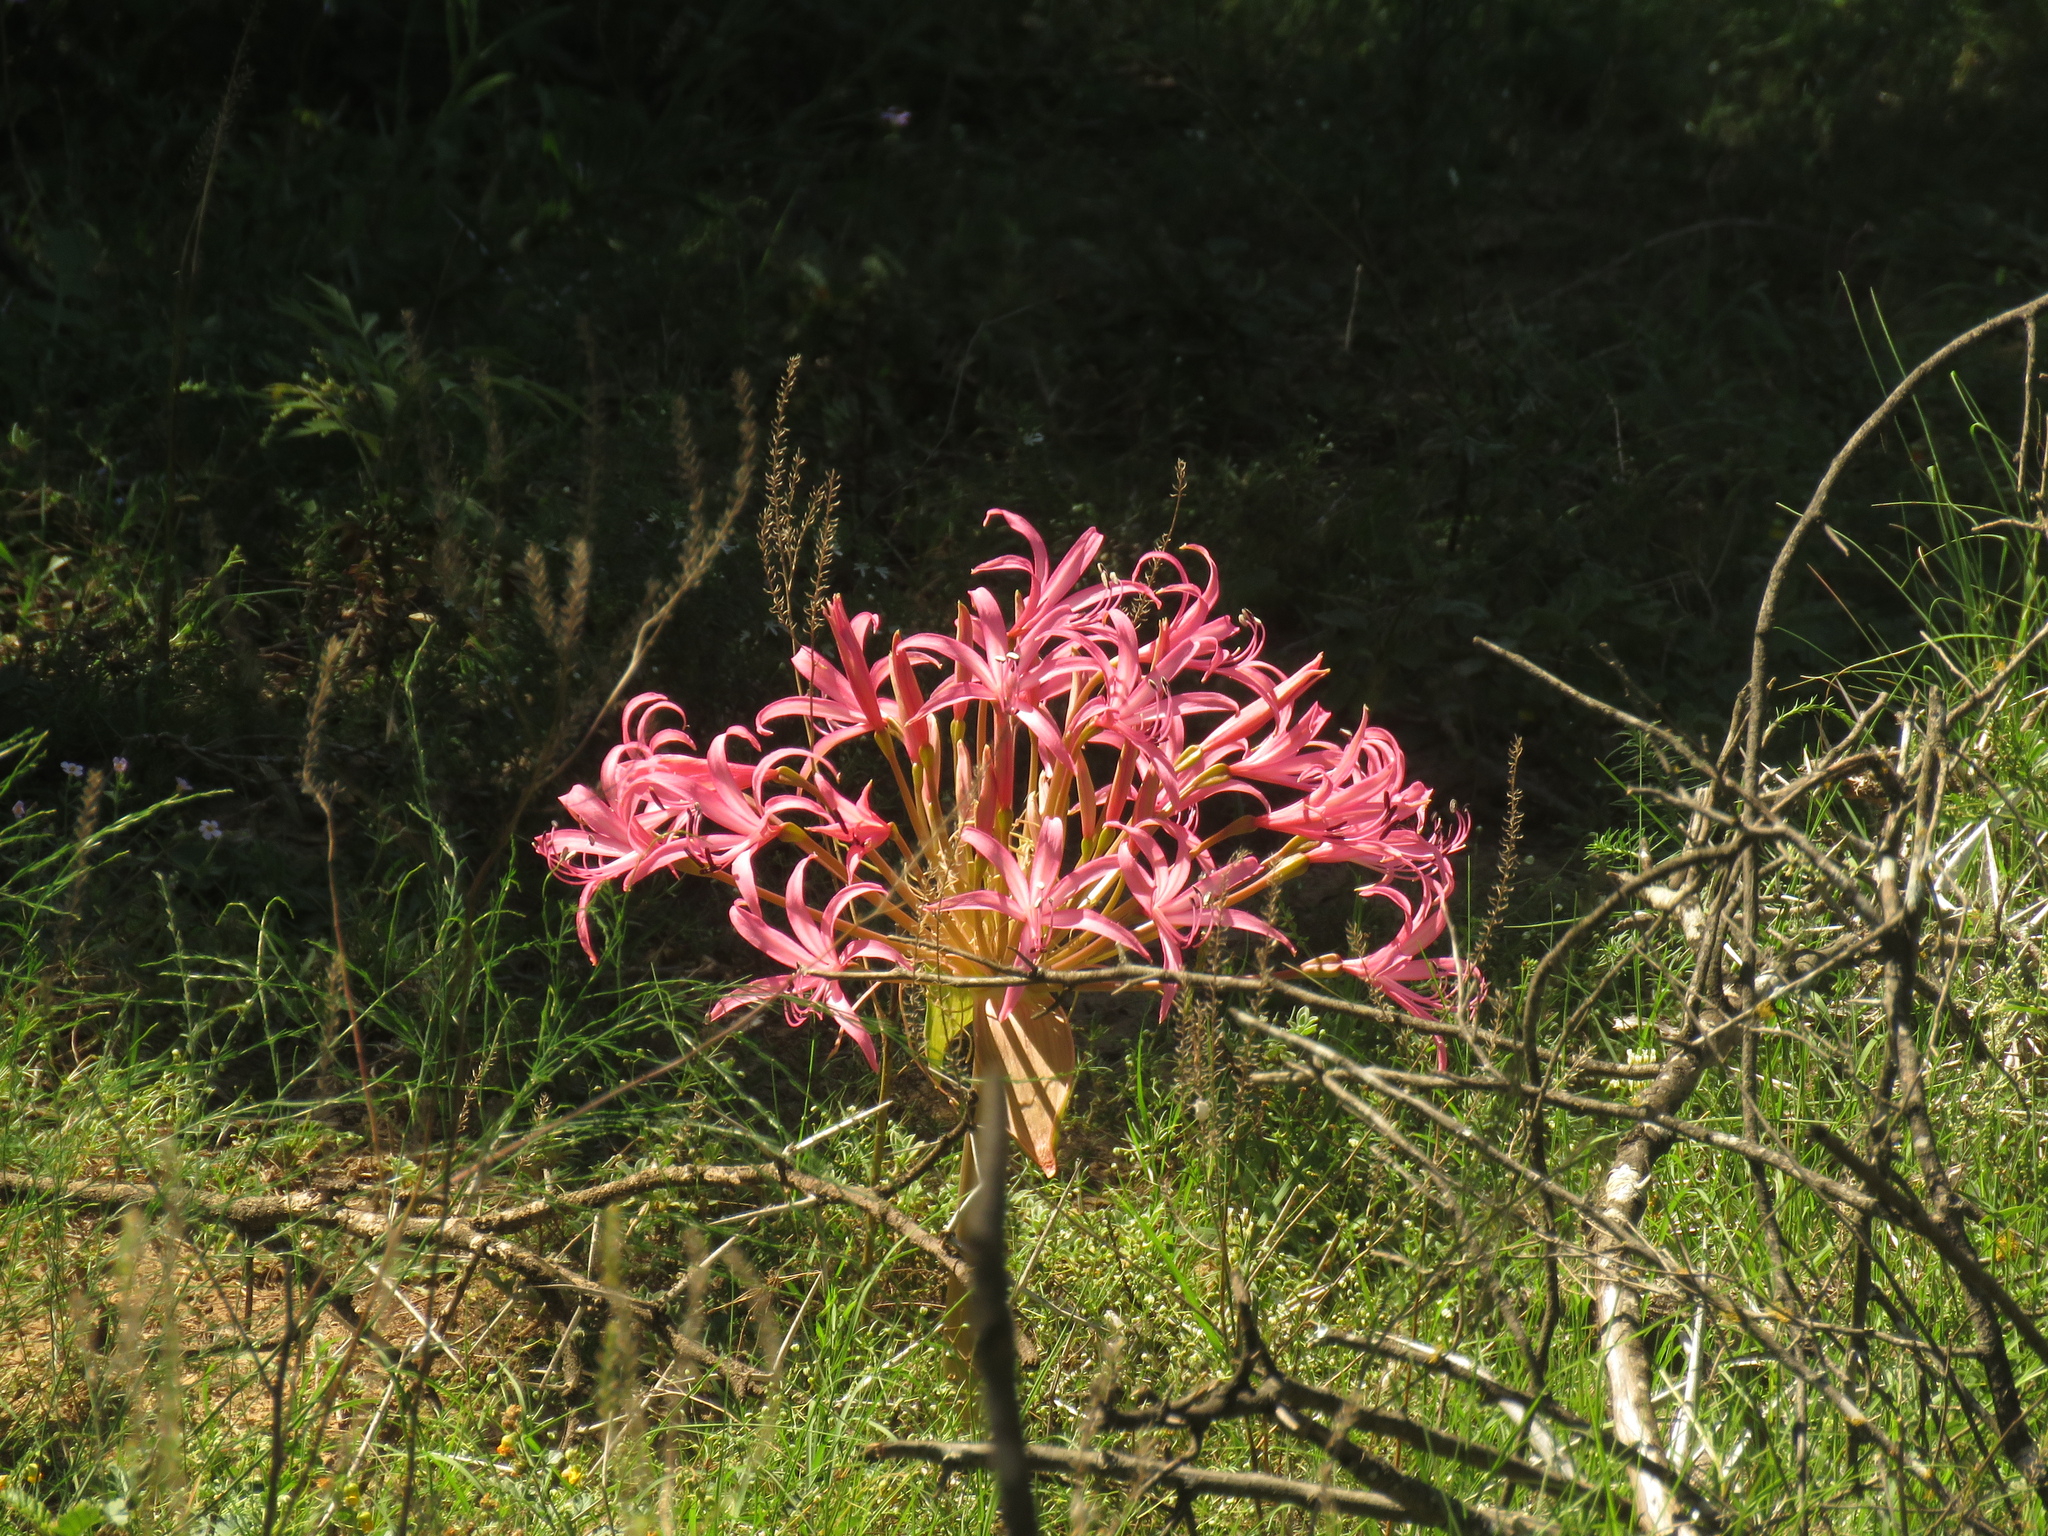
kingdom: Plantae
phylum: Tracheophyta
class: Liliopsida
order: Asparagales
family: Amaryllidaceae
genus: Brunsvigia
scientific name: Brunsvigia gregaria
